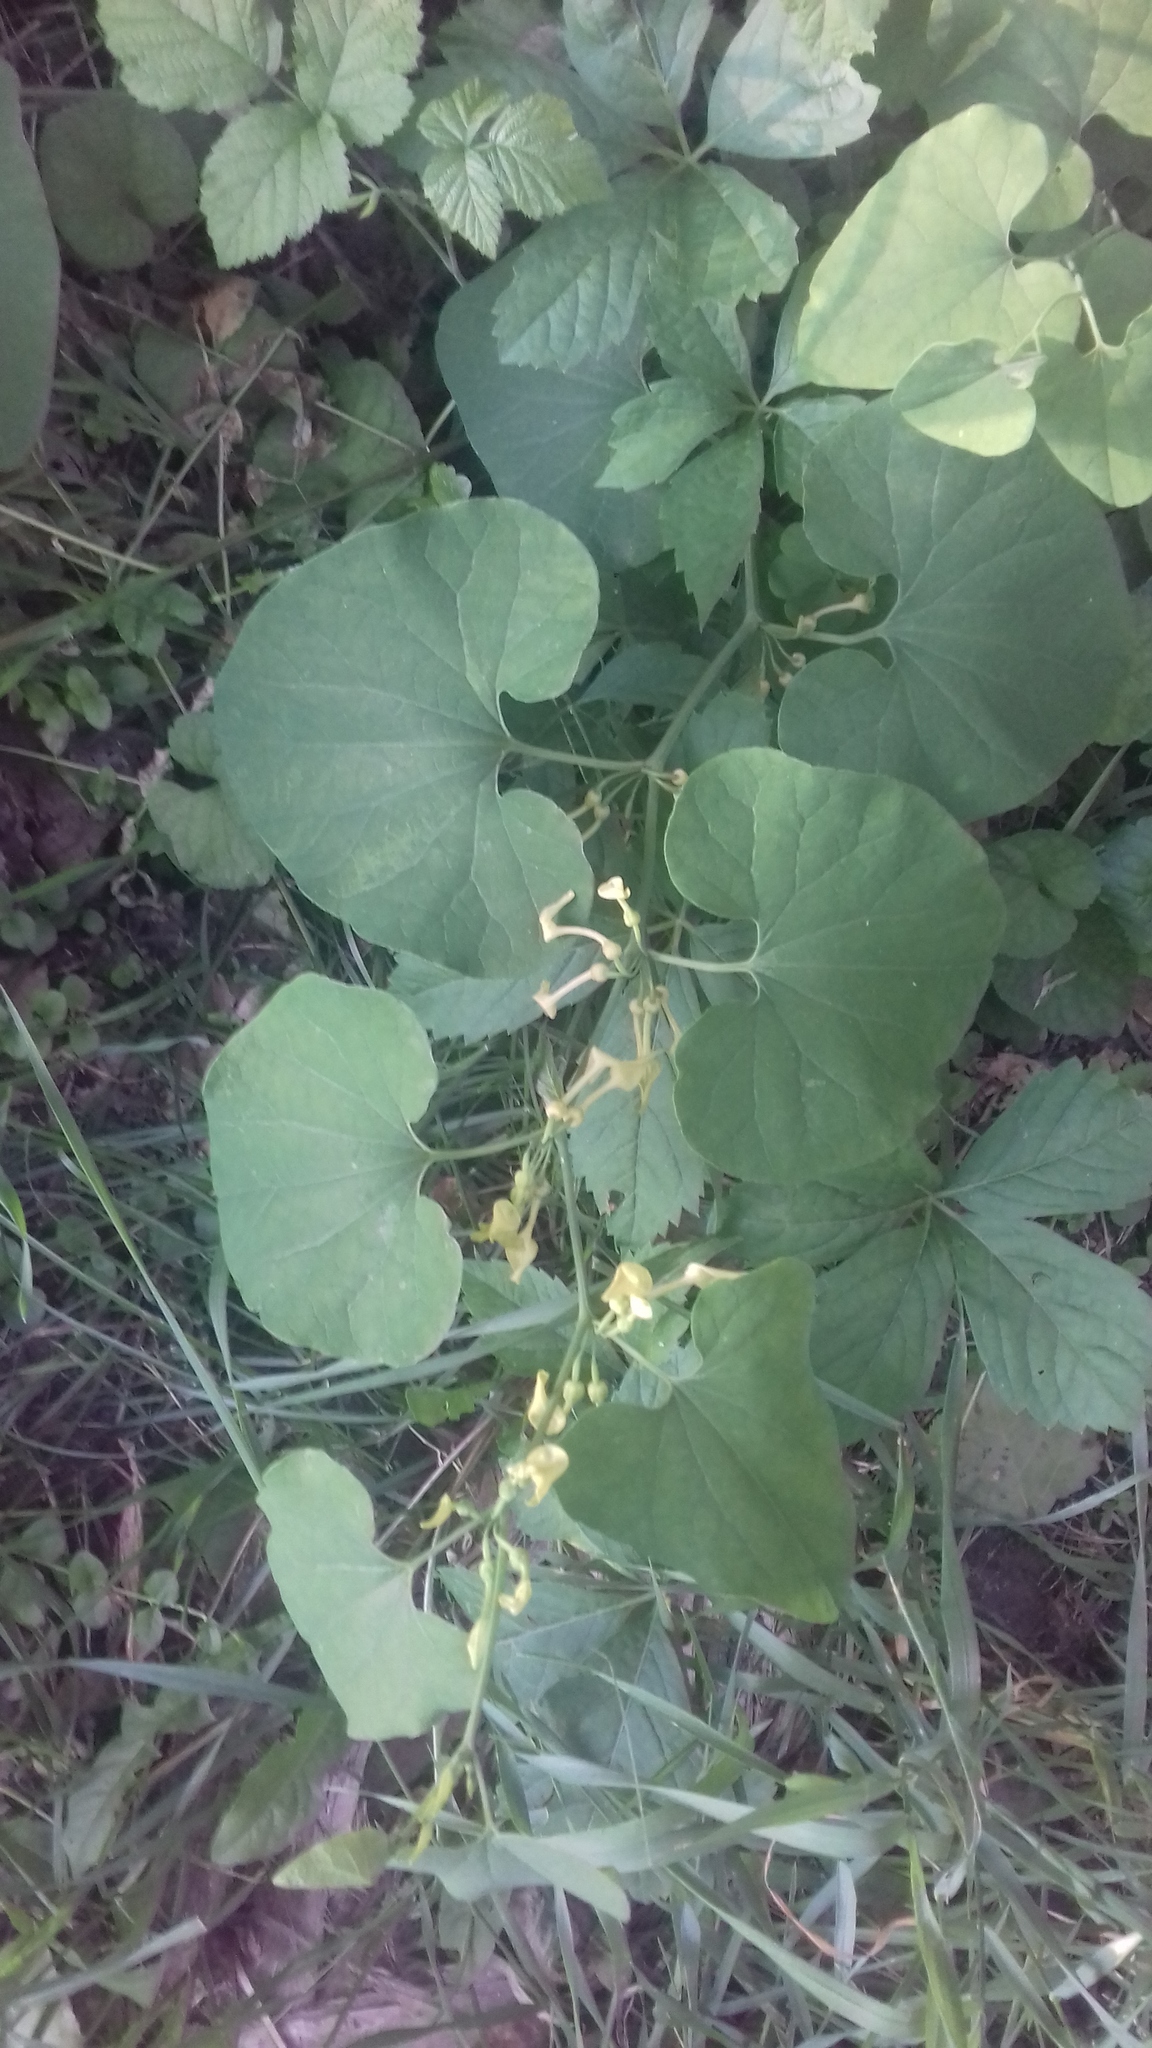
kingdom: Plantae
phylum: Tracheophyta
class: Magnoliopsida
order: Piperales
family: Aristolochiaceae
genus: Aristolochia
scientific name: Aristolochia clematitis
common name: Birthwort
